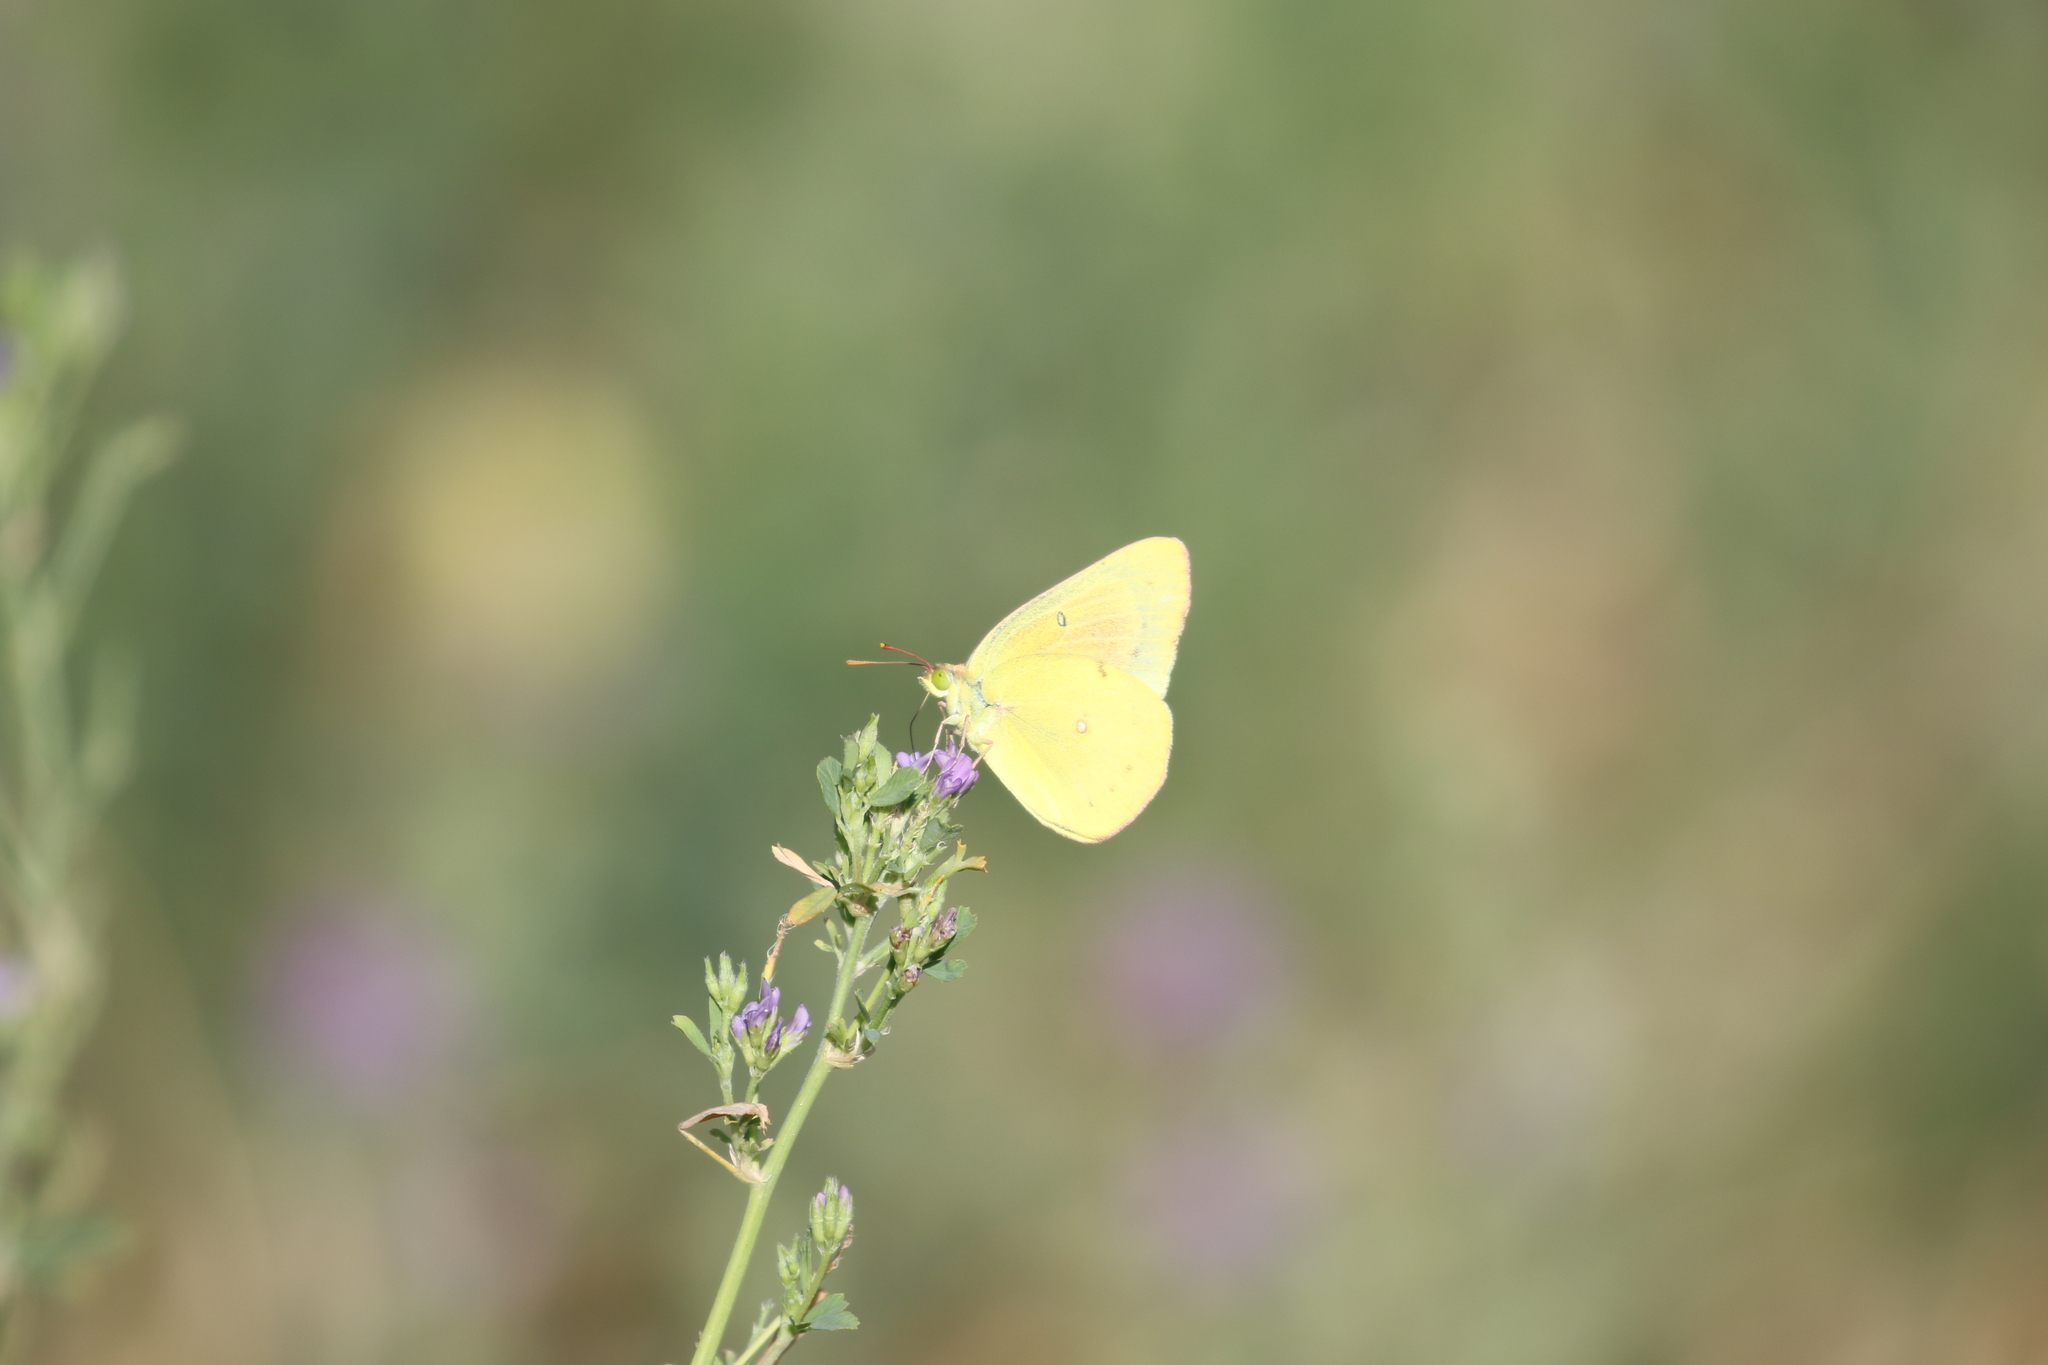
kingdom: Animalia
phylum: Arthropoda
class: Insecta
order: Lepidoptera
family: Pieridae
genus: Colias
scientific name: Colias eurytheme
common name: Alfalfa butterfly
